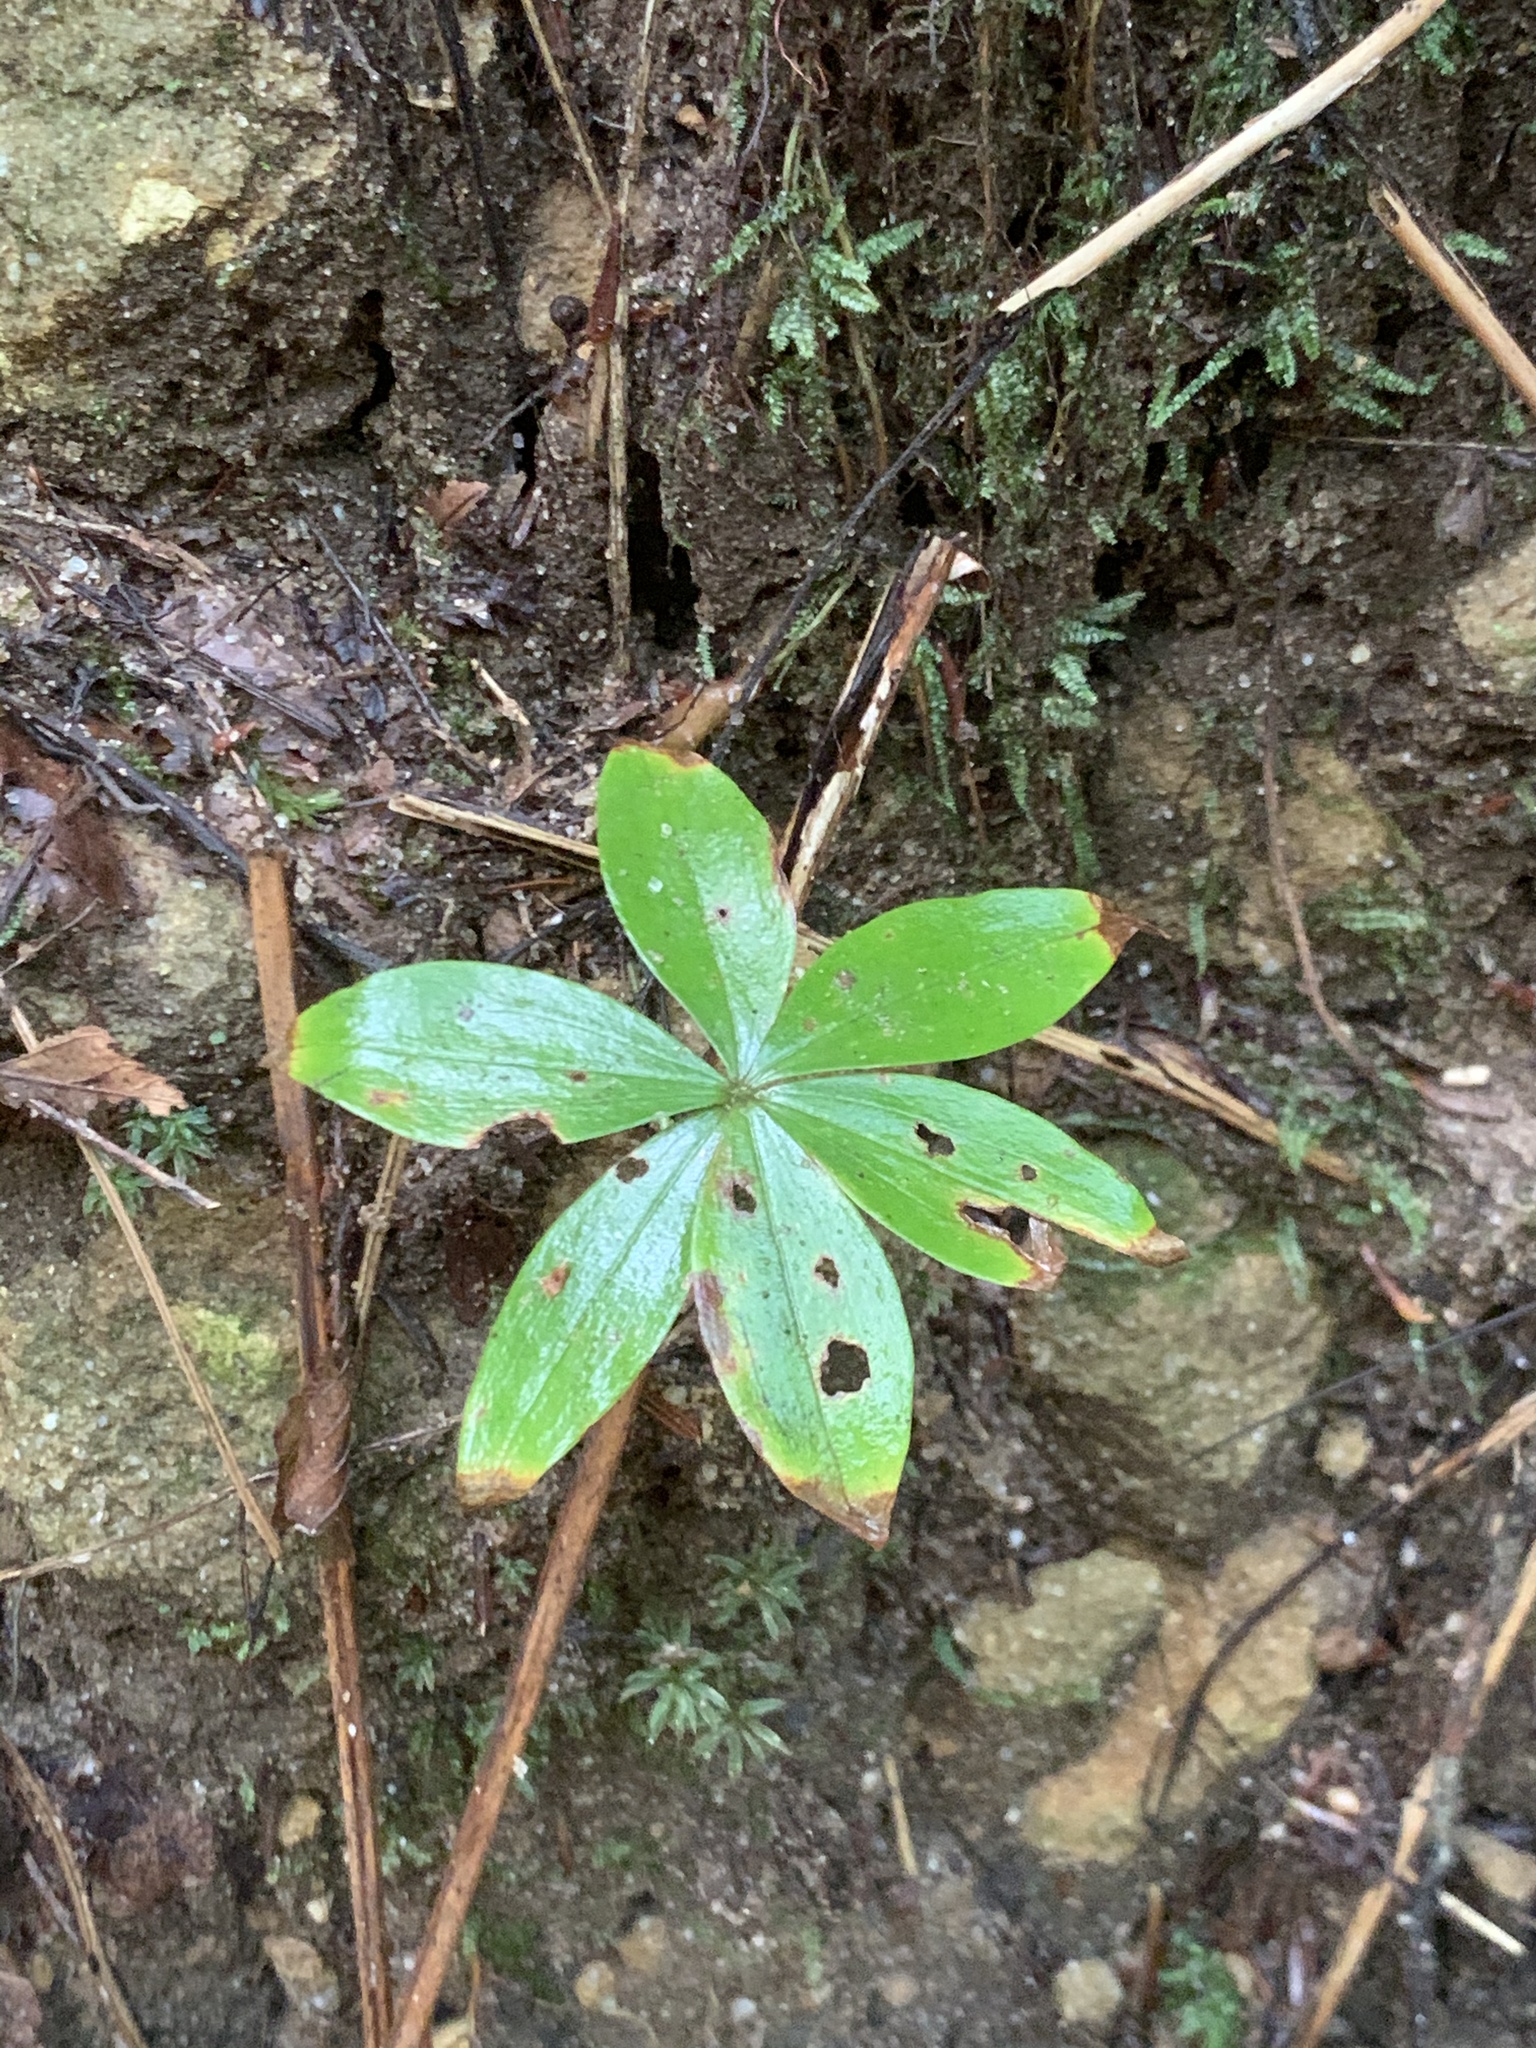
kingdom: Plantae
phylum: Tracheophyta
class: Liliopsida
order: Liliales
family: Liliaceae
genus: Medeola
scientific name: Medeola virginiana
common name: Indian cucumber-root
